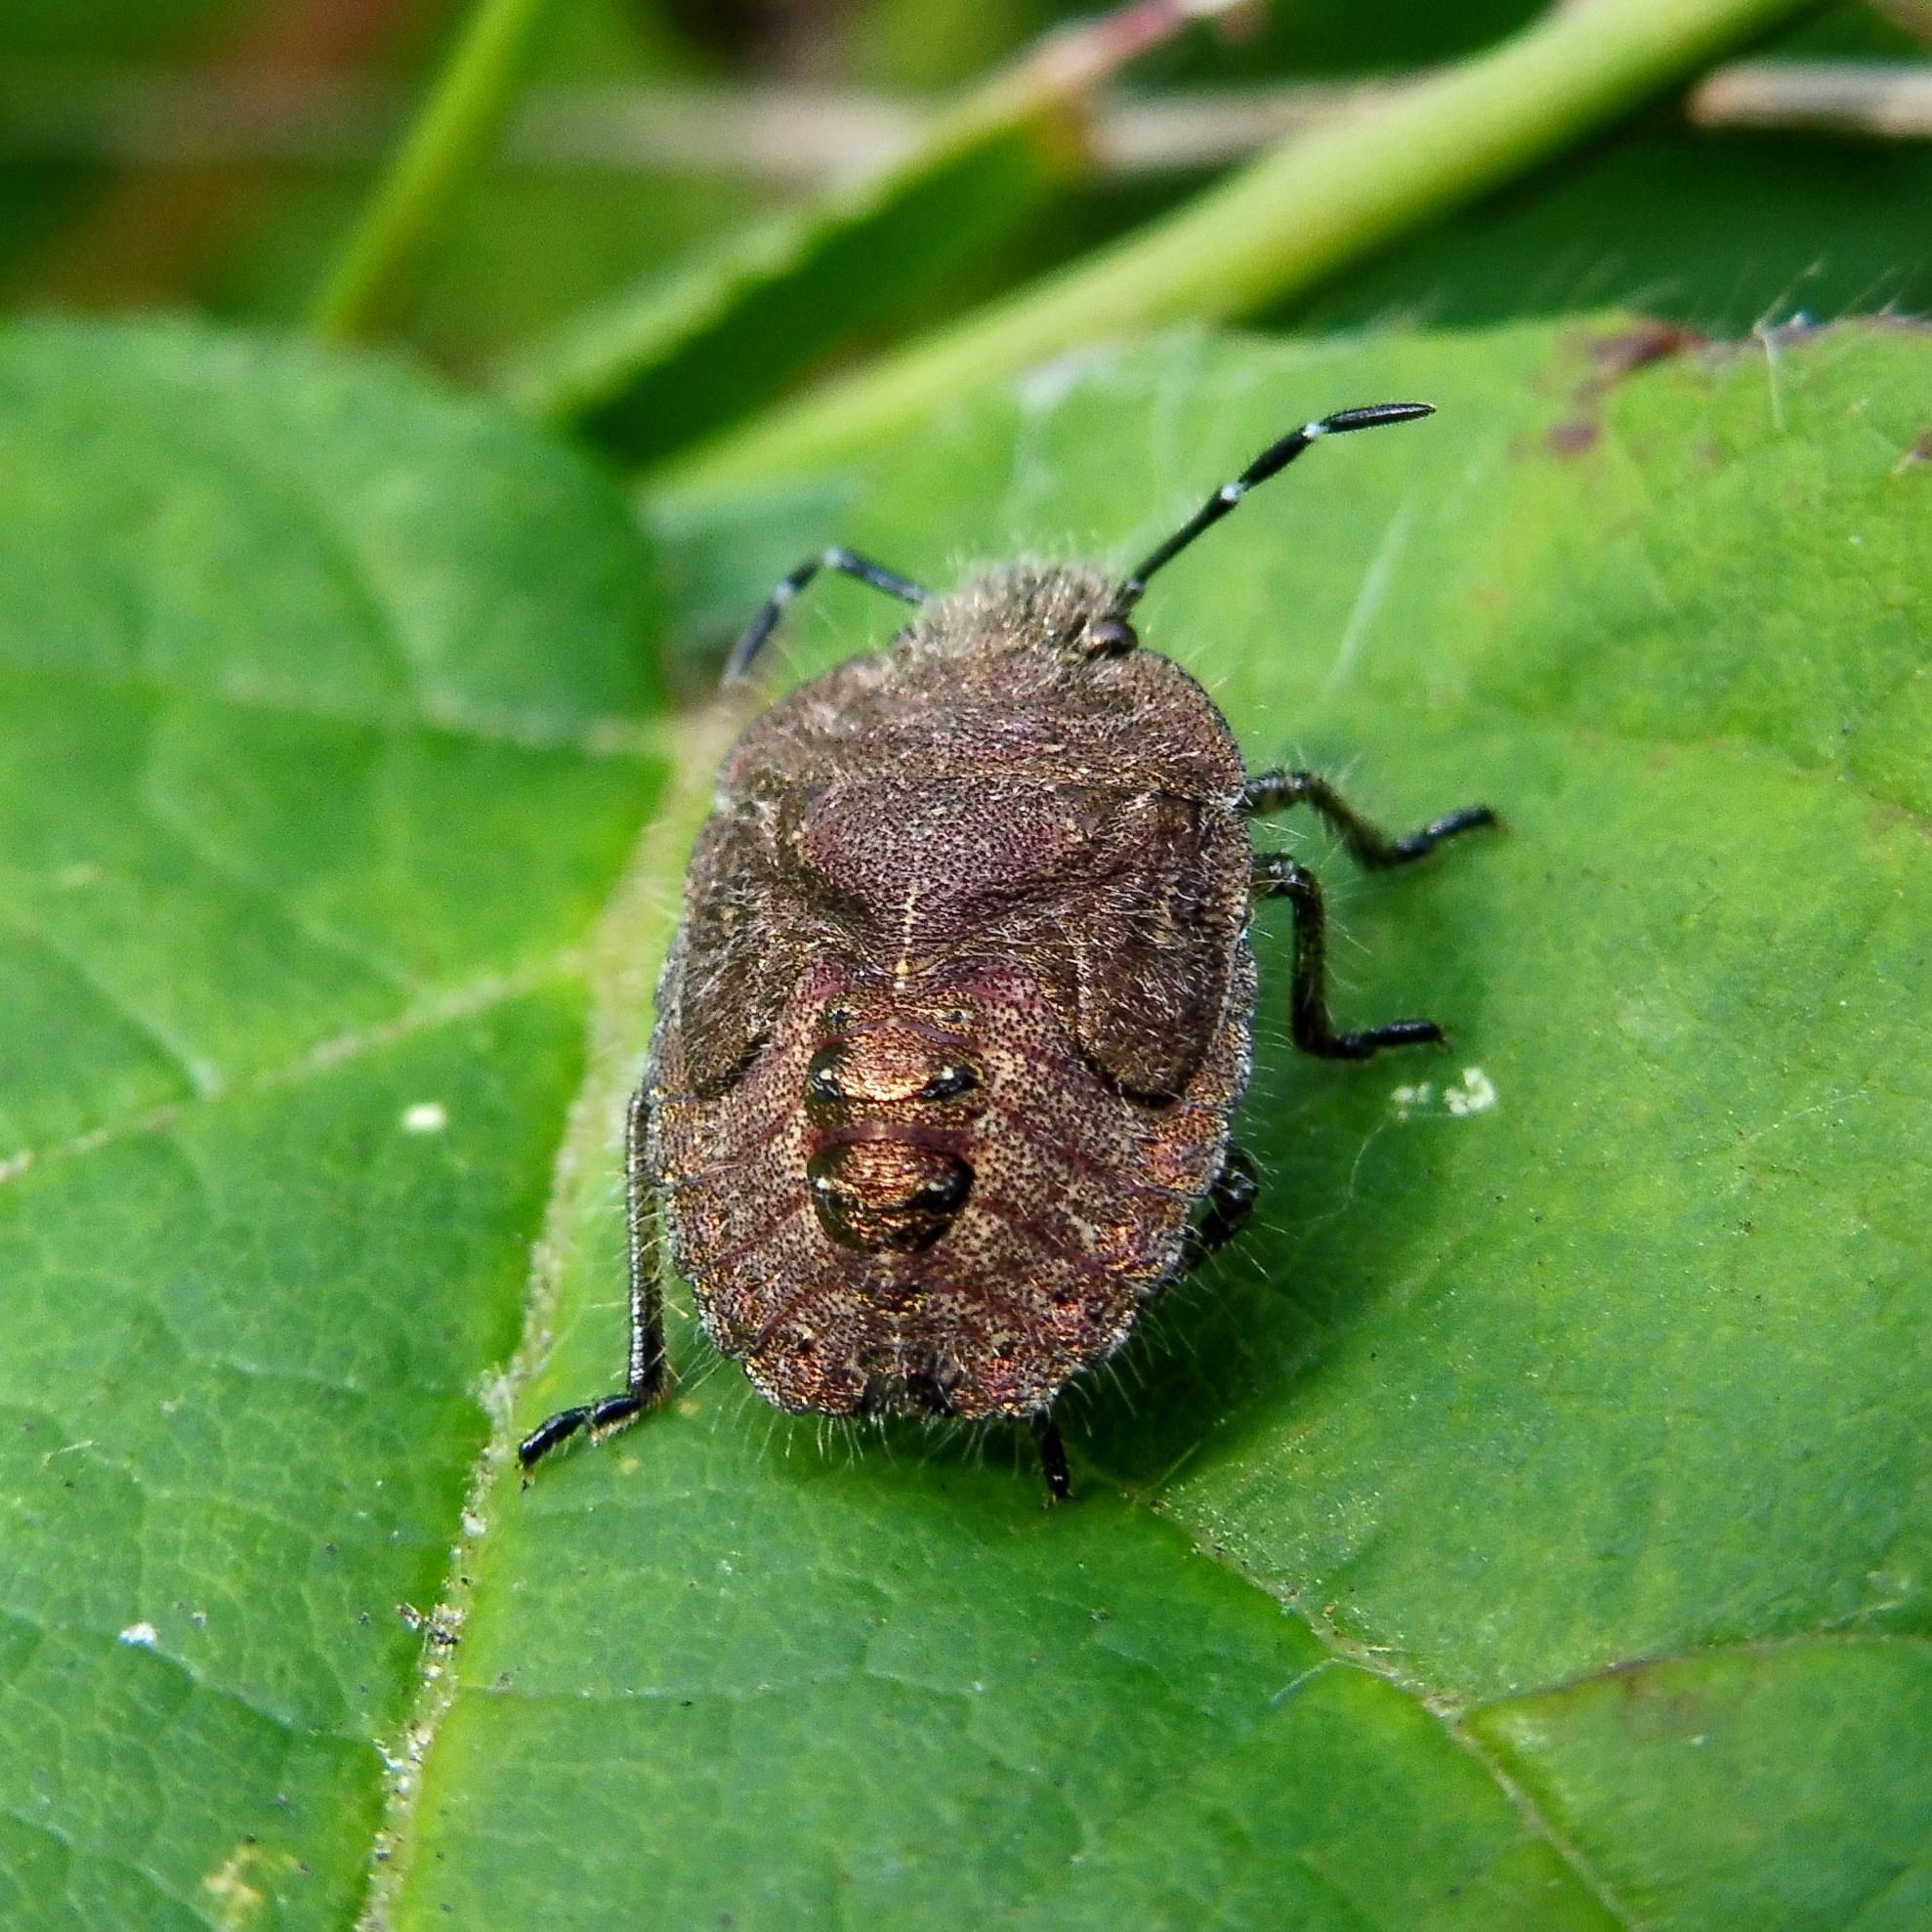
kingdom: Animalia
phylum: Arthropoda
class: Insecta
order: Hemiptera
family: Pentatomidae
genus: Dolycoris
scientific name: Dolycoris baccarum
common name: Sloe bug
